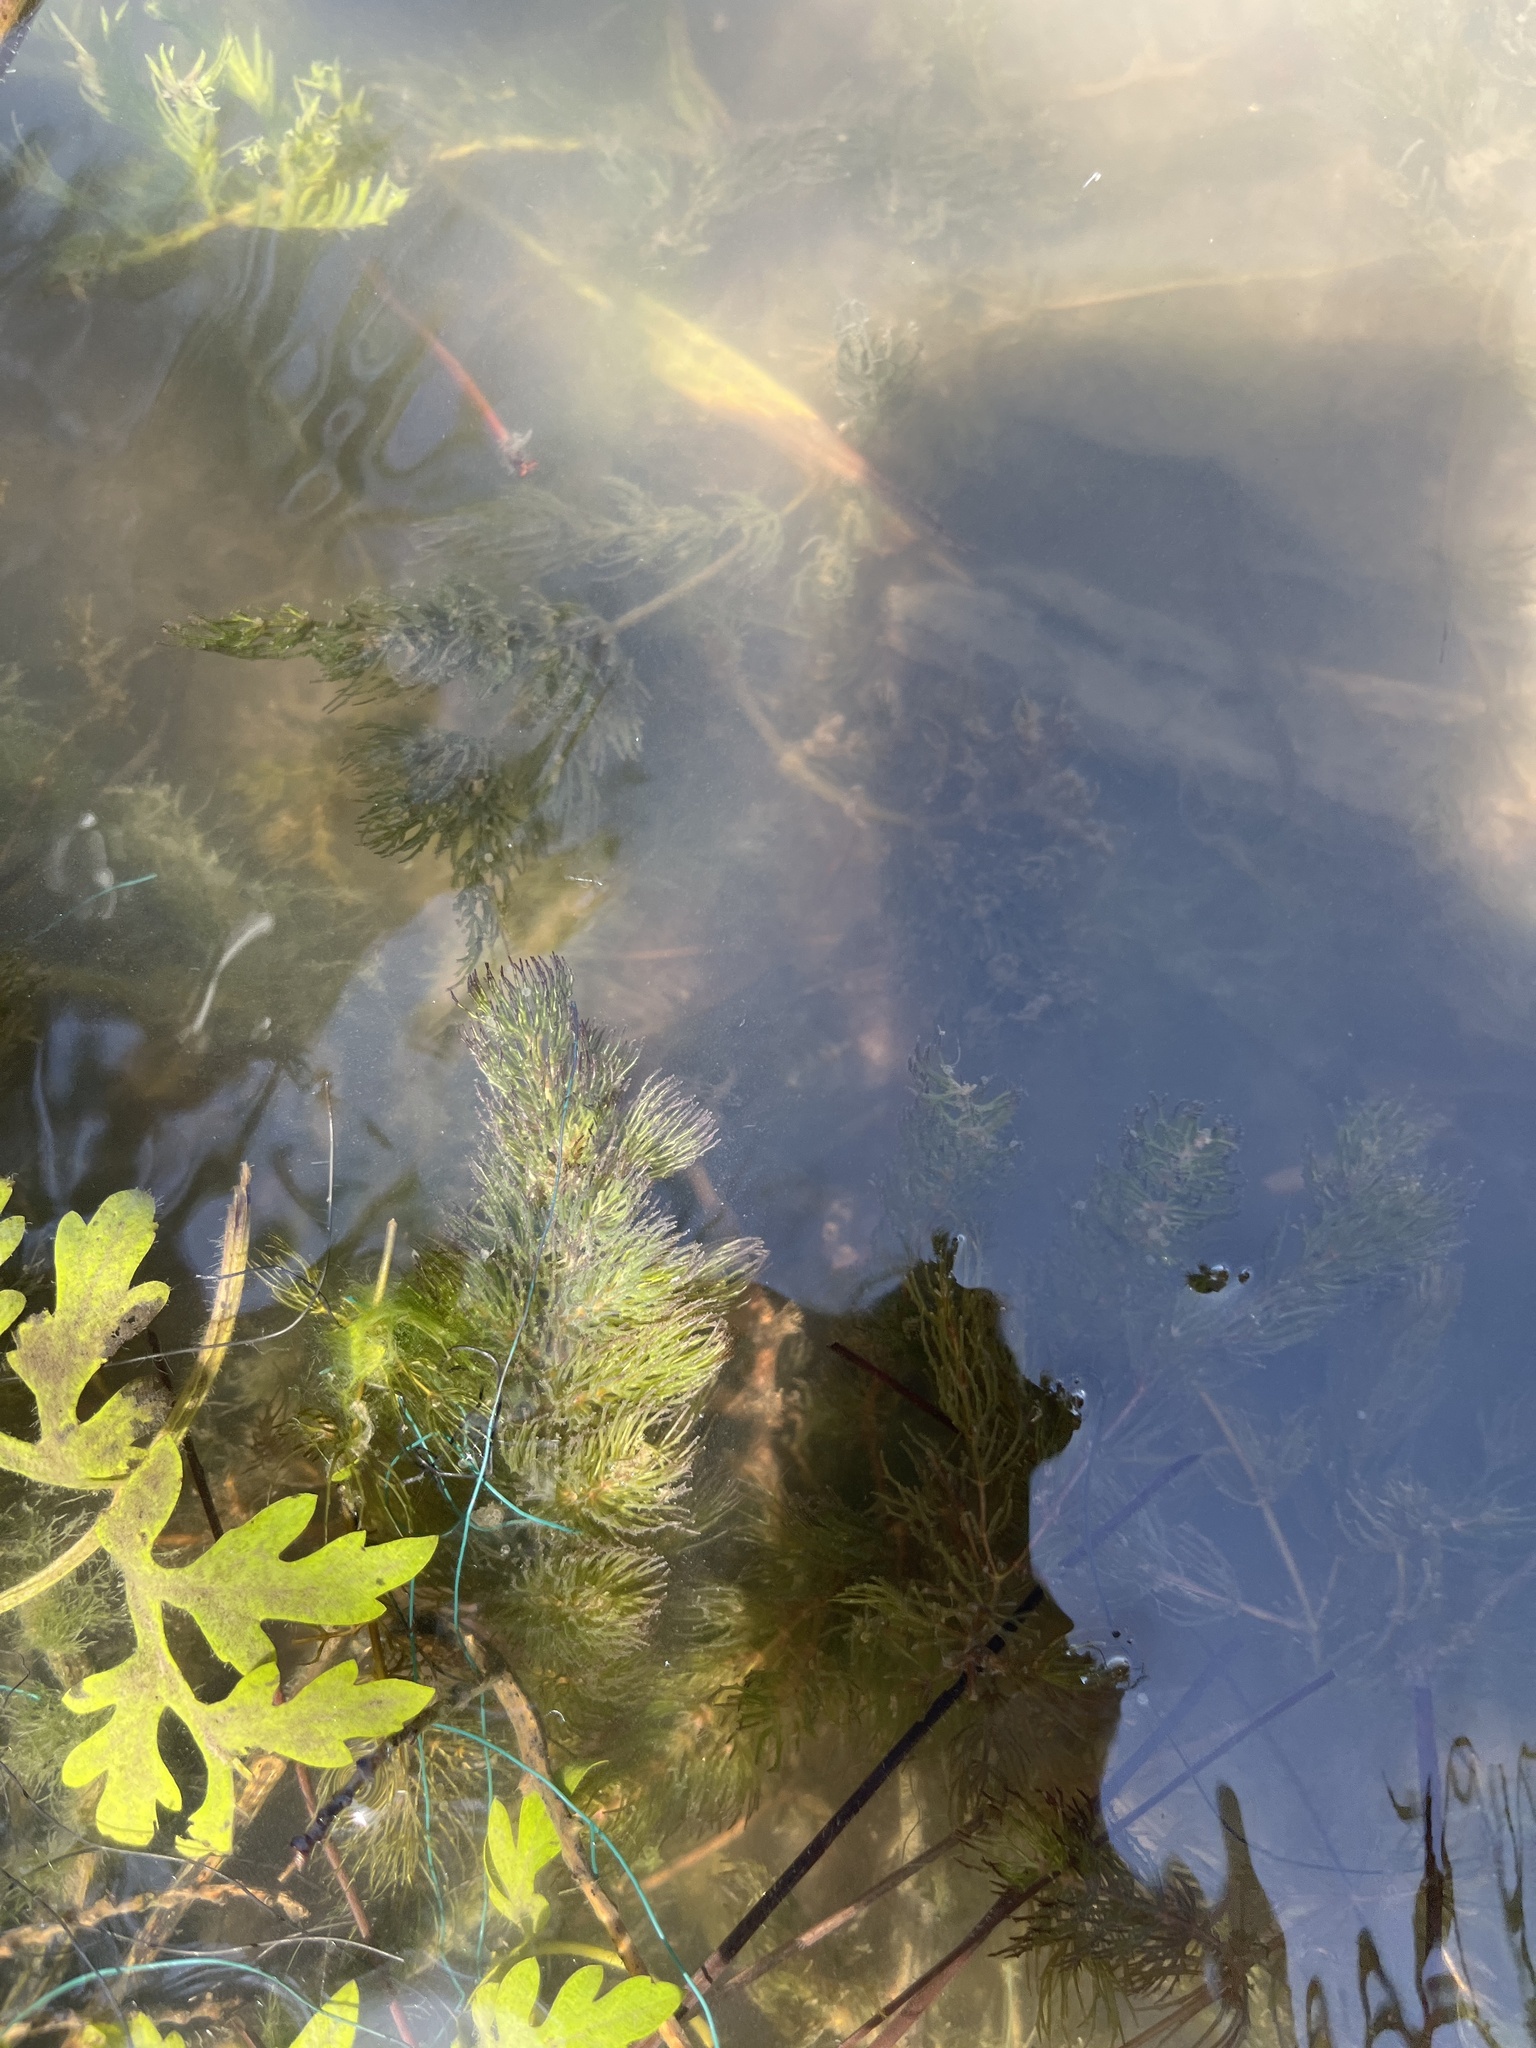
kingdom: Plantae
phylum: Tracheophyta
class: Magnoliopsida
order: Ceratophyllales
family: Ceratophyllaceae
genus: Ceratophyllum
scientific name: Ceratophyllum demersum
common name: Rigid hornwort
